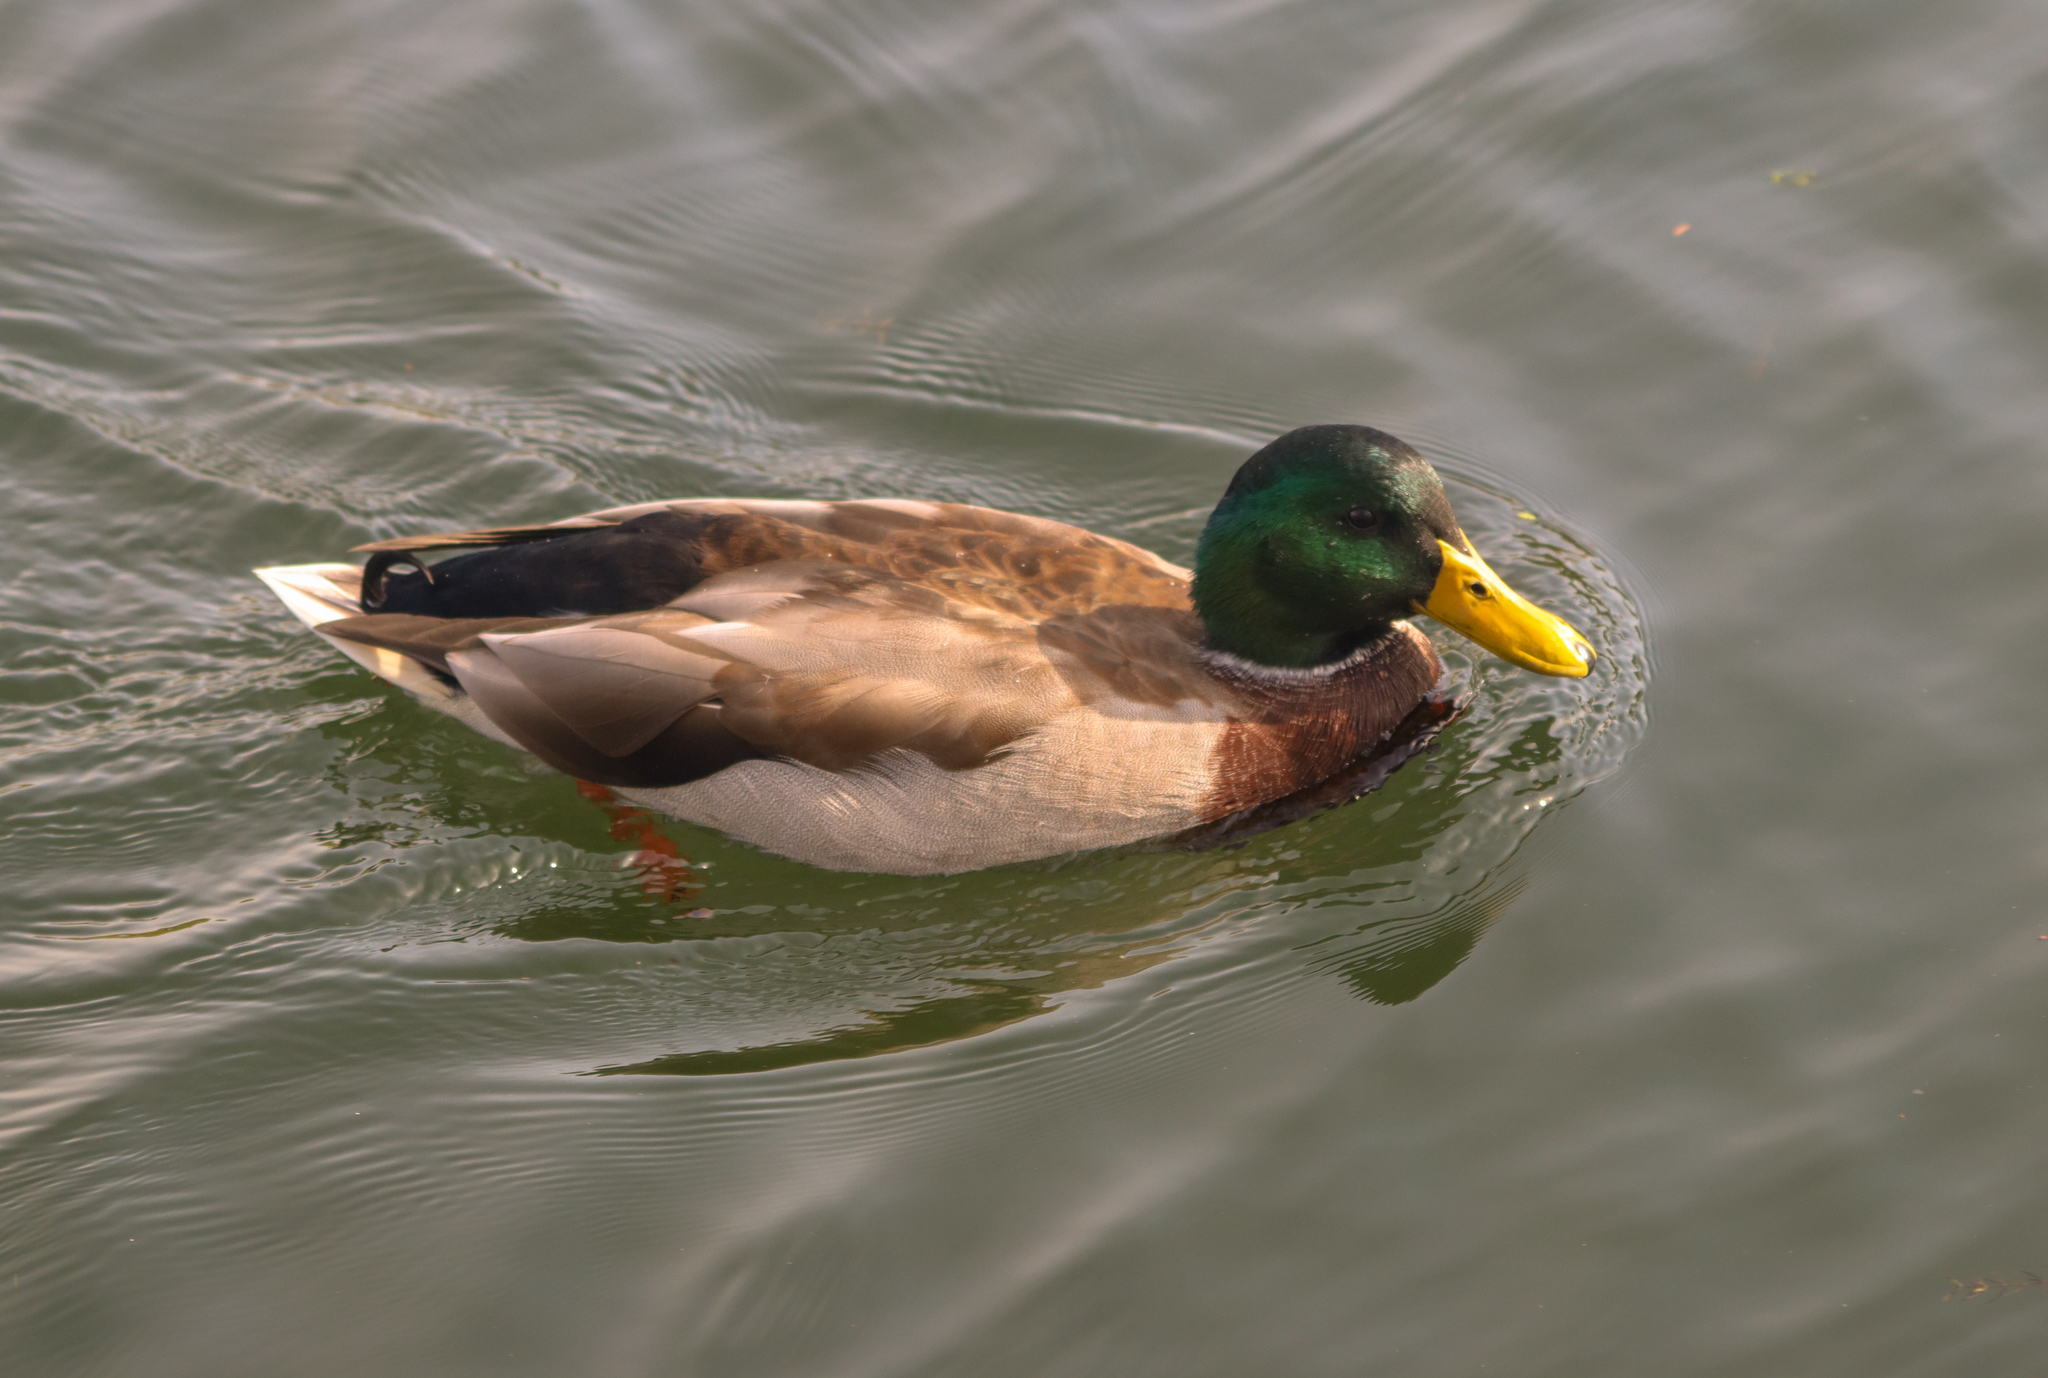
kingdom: Animalia
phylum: Chordata
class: Aves
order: Anseriformes
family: Anatidae
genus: Anas
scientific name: Anas platyrhynchos
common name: Mallard
